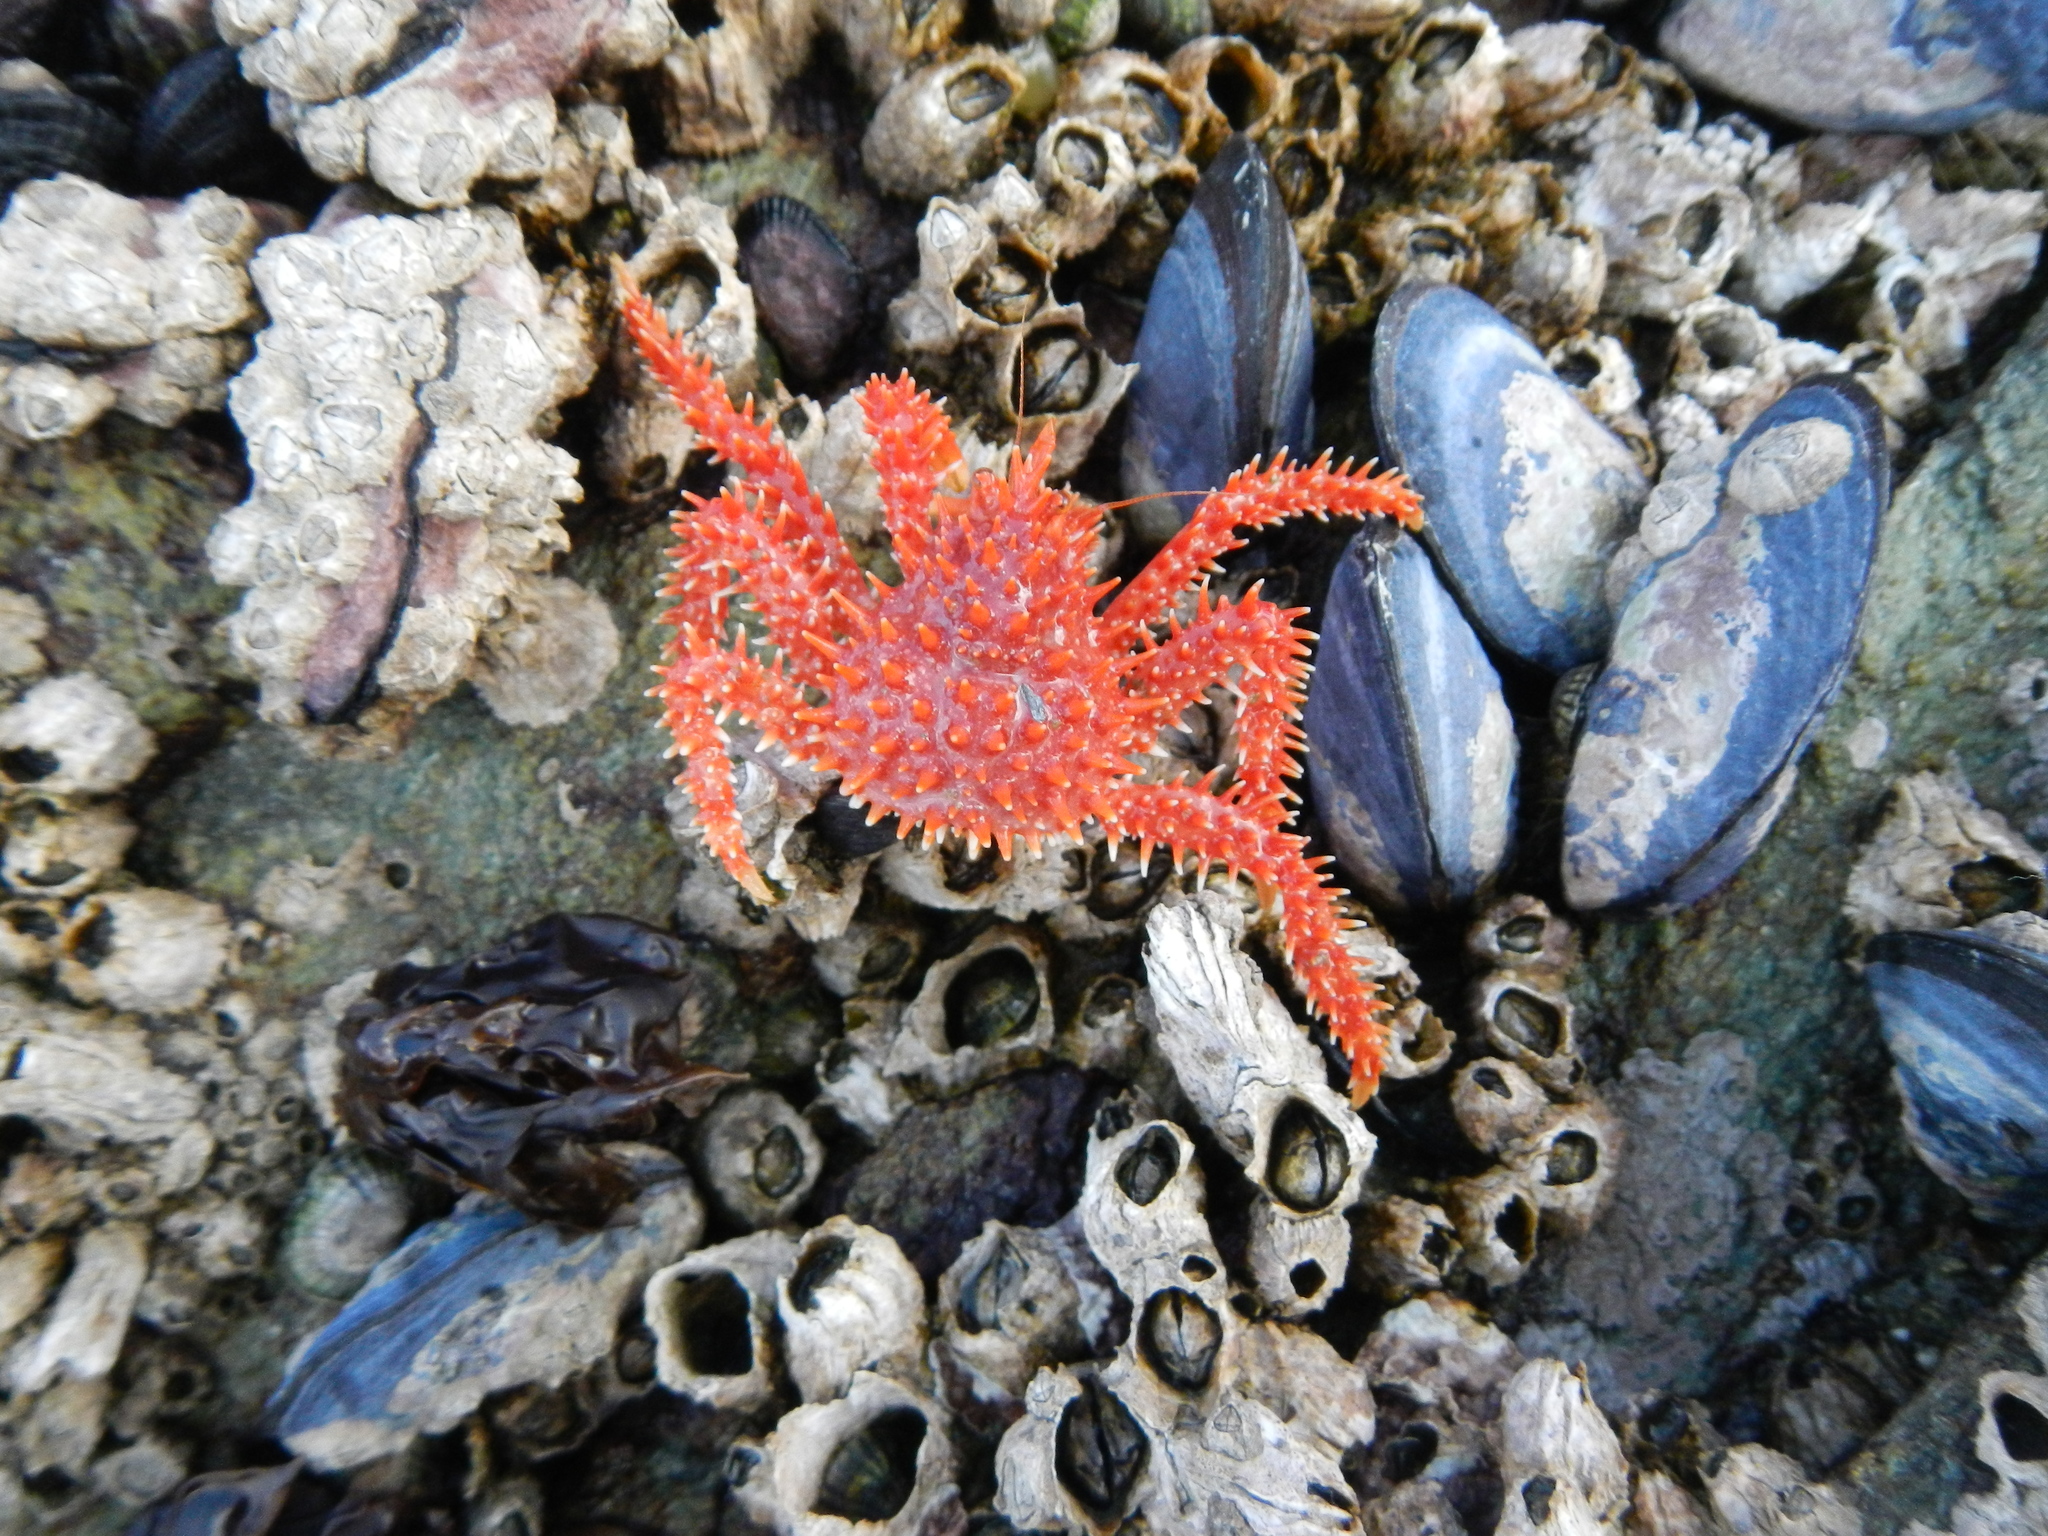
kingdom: Animalia
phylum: Arthropoda
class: Malacostraca
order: Decapoda
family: Lithodidae
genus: Lithodes
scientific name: Lithodes santolla
